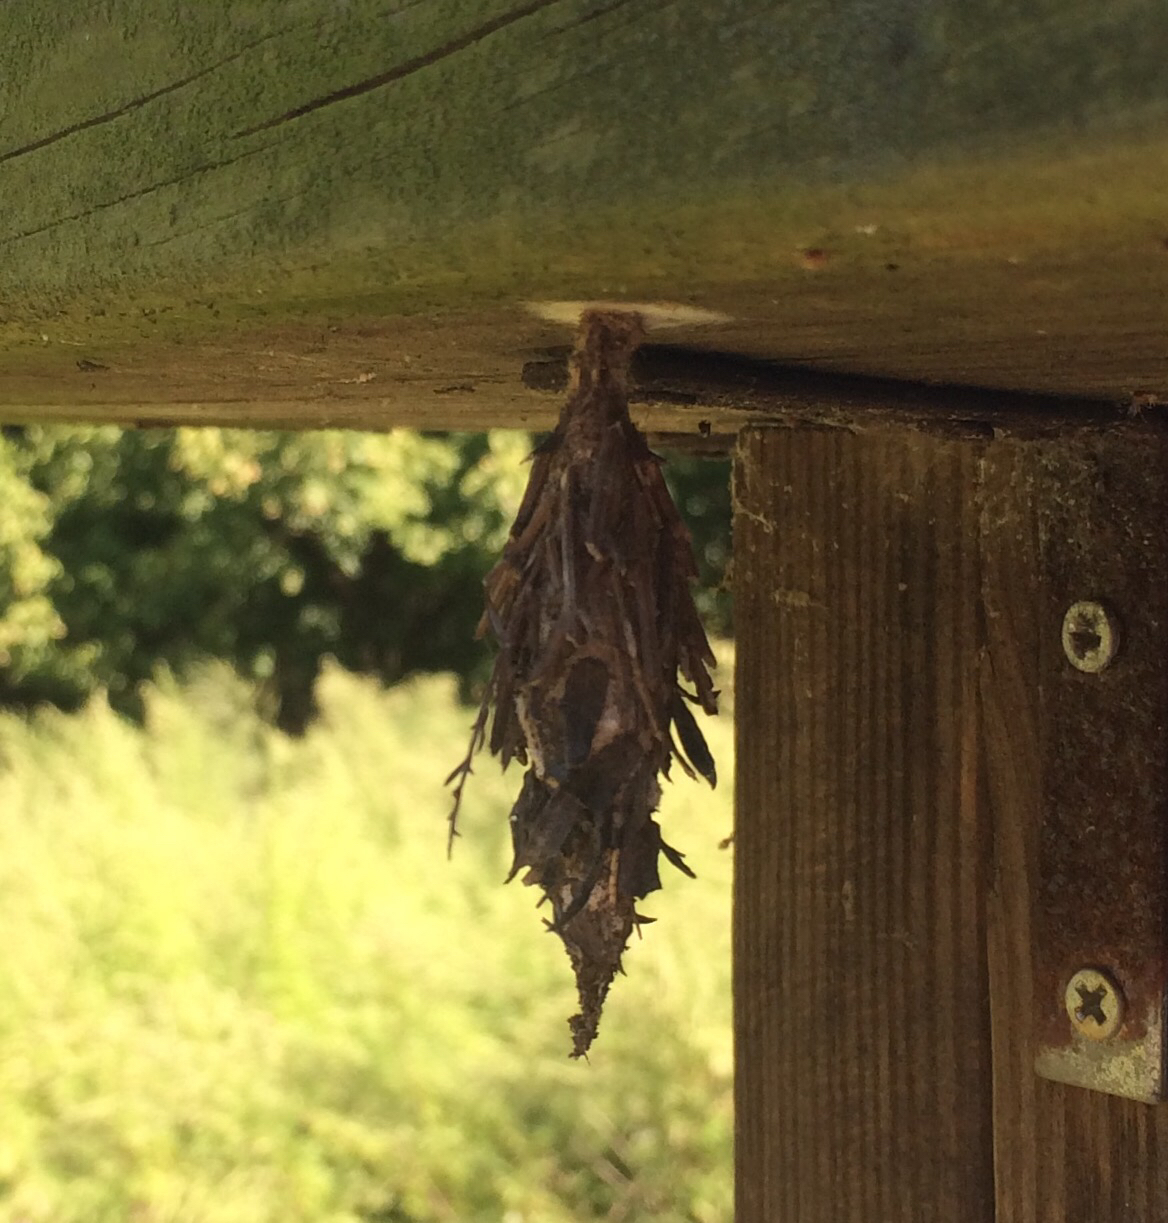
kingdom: Animalia
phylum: Arthropoda
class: Insecta
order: Lepidoptera
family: Psychidae
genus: Thyridopteryx
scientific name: Thyridopteryx ephemeraeformis
